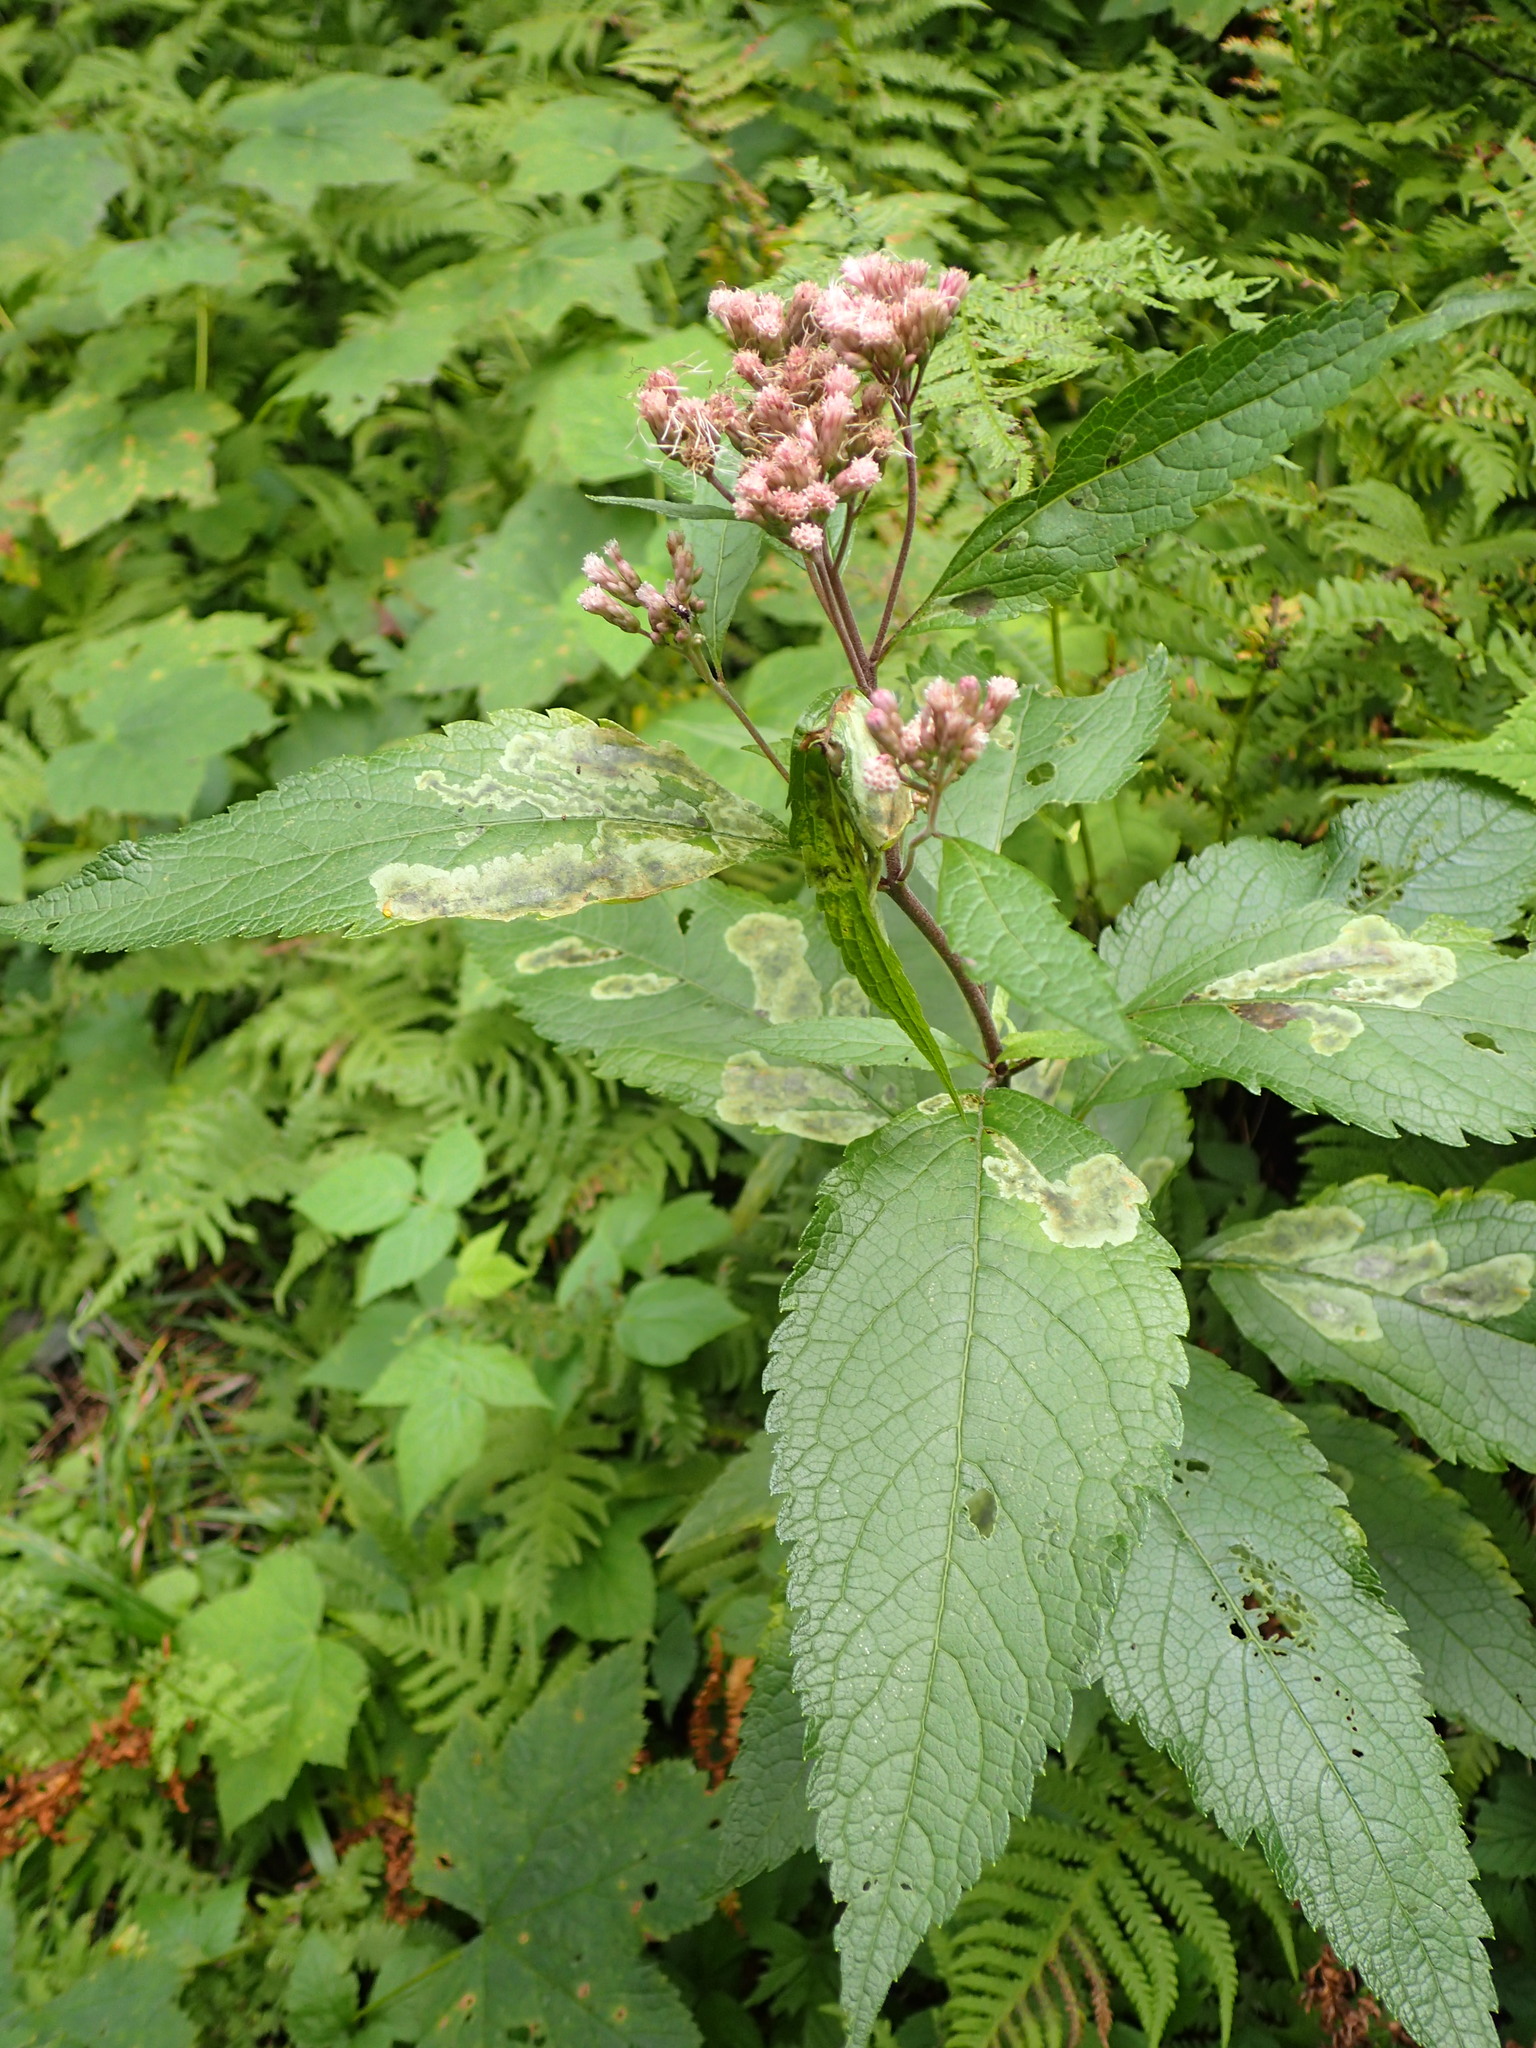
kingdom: Plantae
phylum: Tracheophyta
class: Magnoliopsida
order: Asterales
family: Asteraceae
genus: Eutrochium
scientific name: Eutrochium maculatum
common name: Spotted joe pye weed
